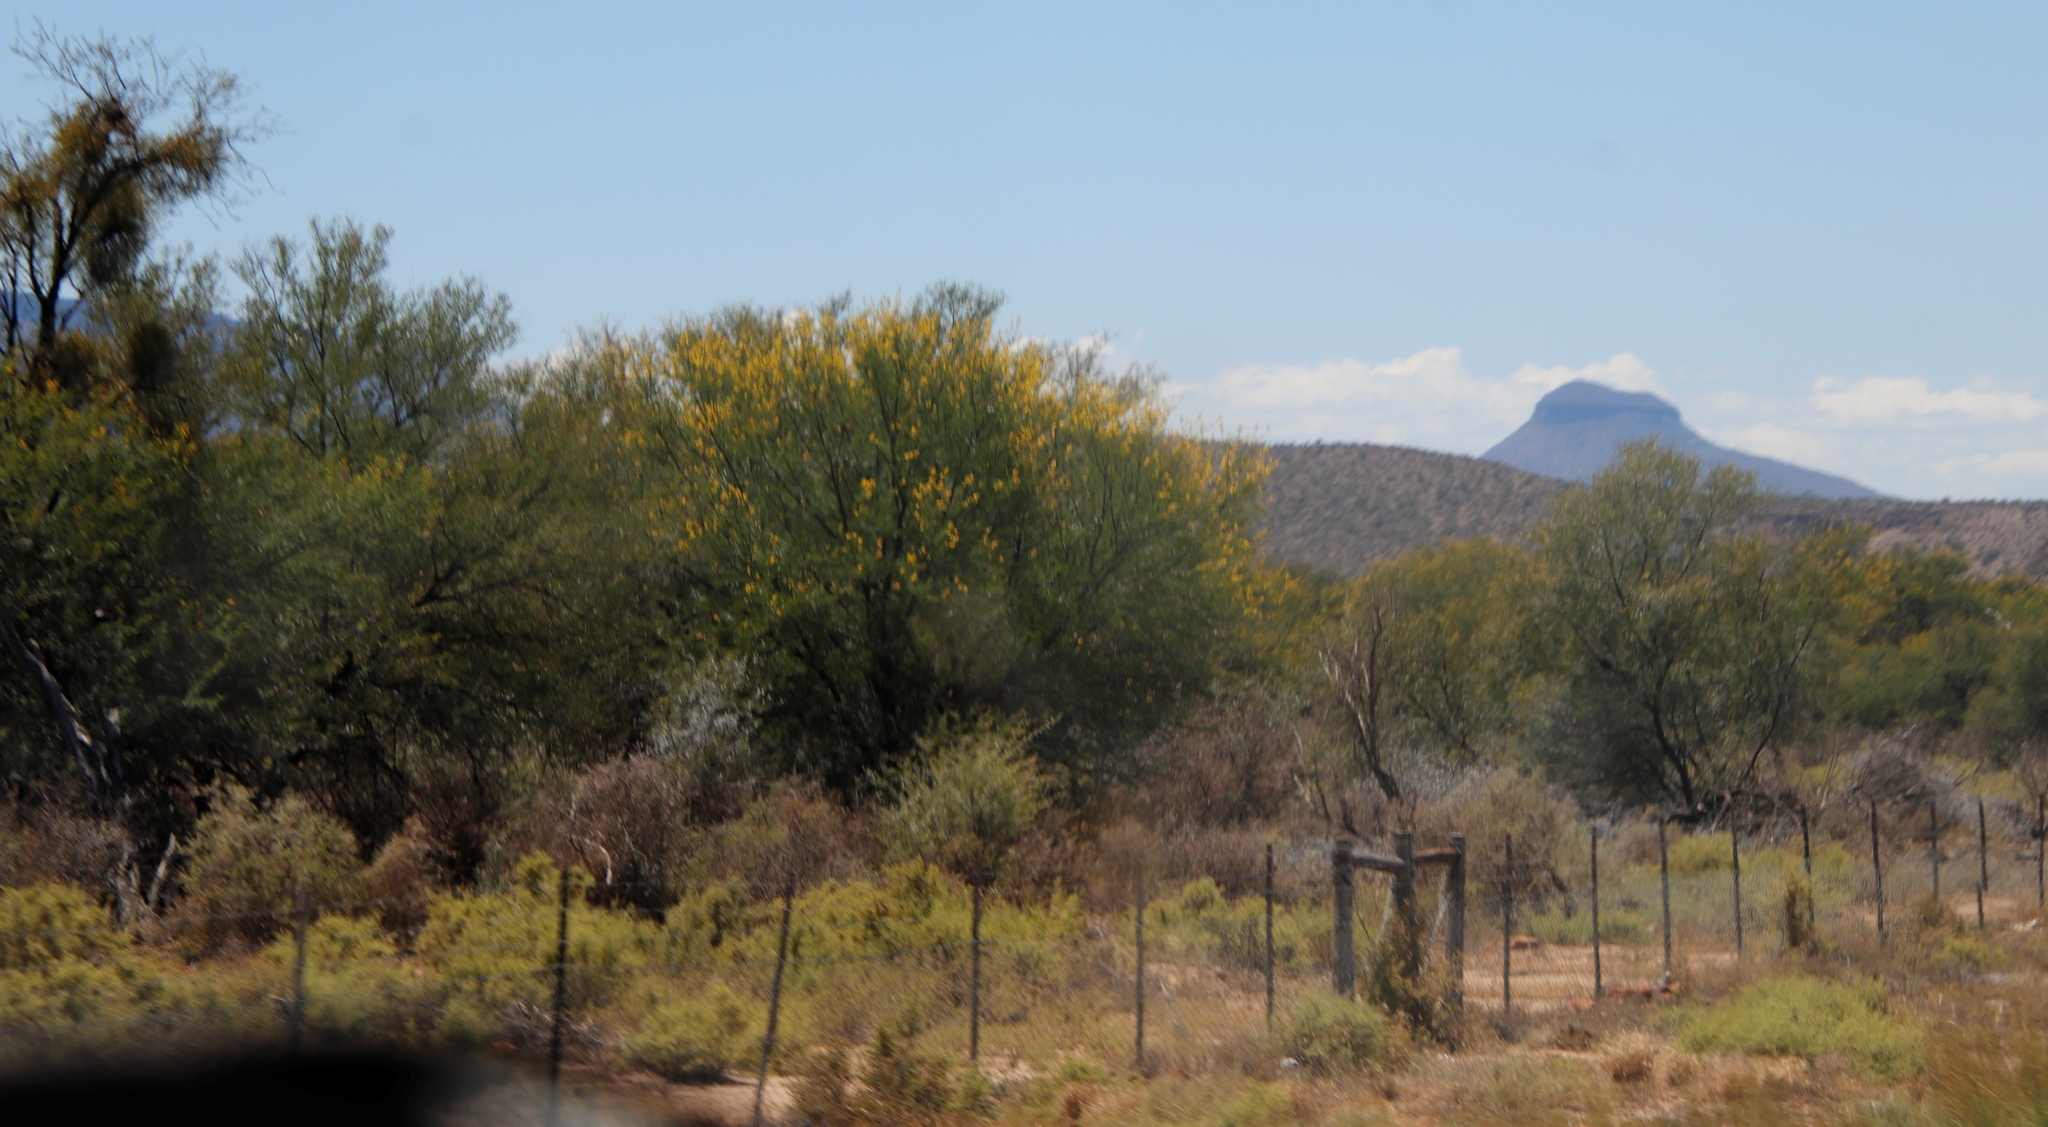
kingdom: Plantae
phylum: Tracheophyta
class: Magnoliopsida
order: Fabales
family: Fabaceae
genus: Vachellia
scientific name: Vachellia karroo
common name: Sweet thorn
